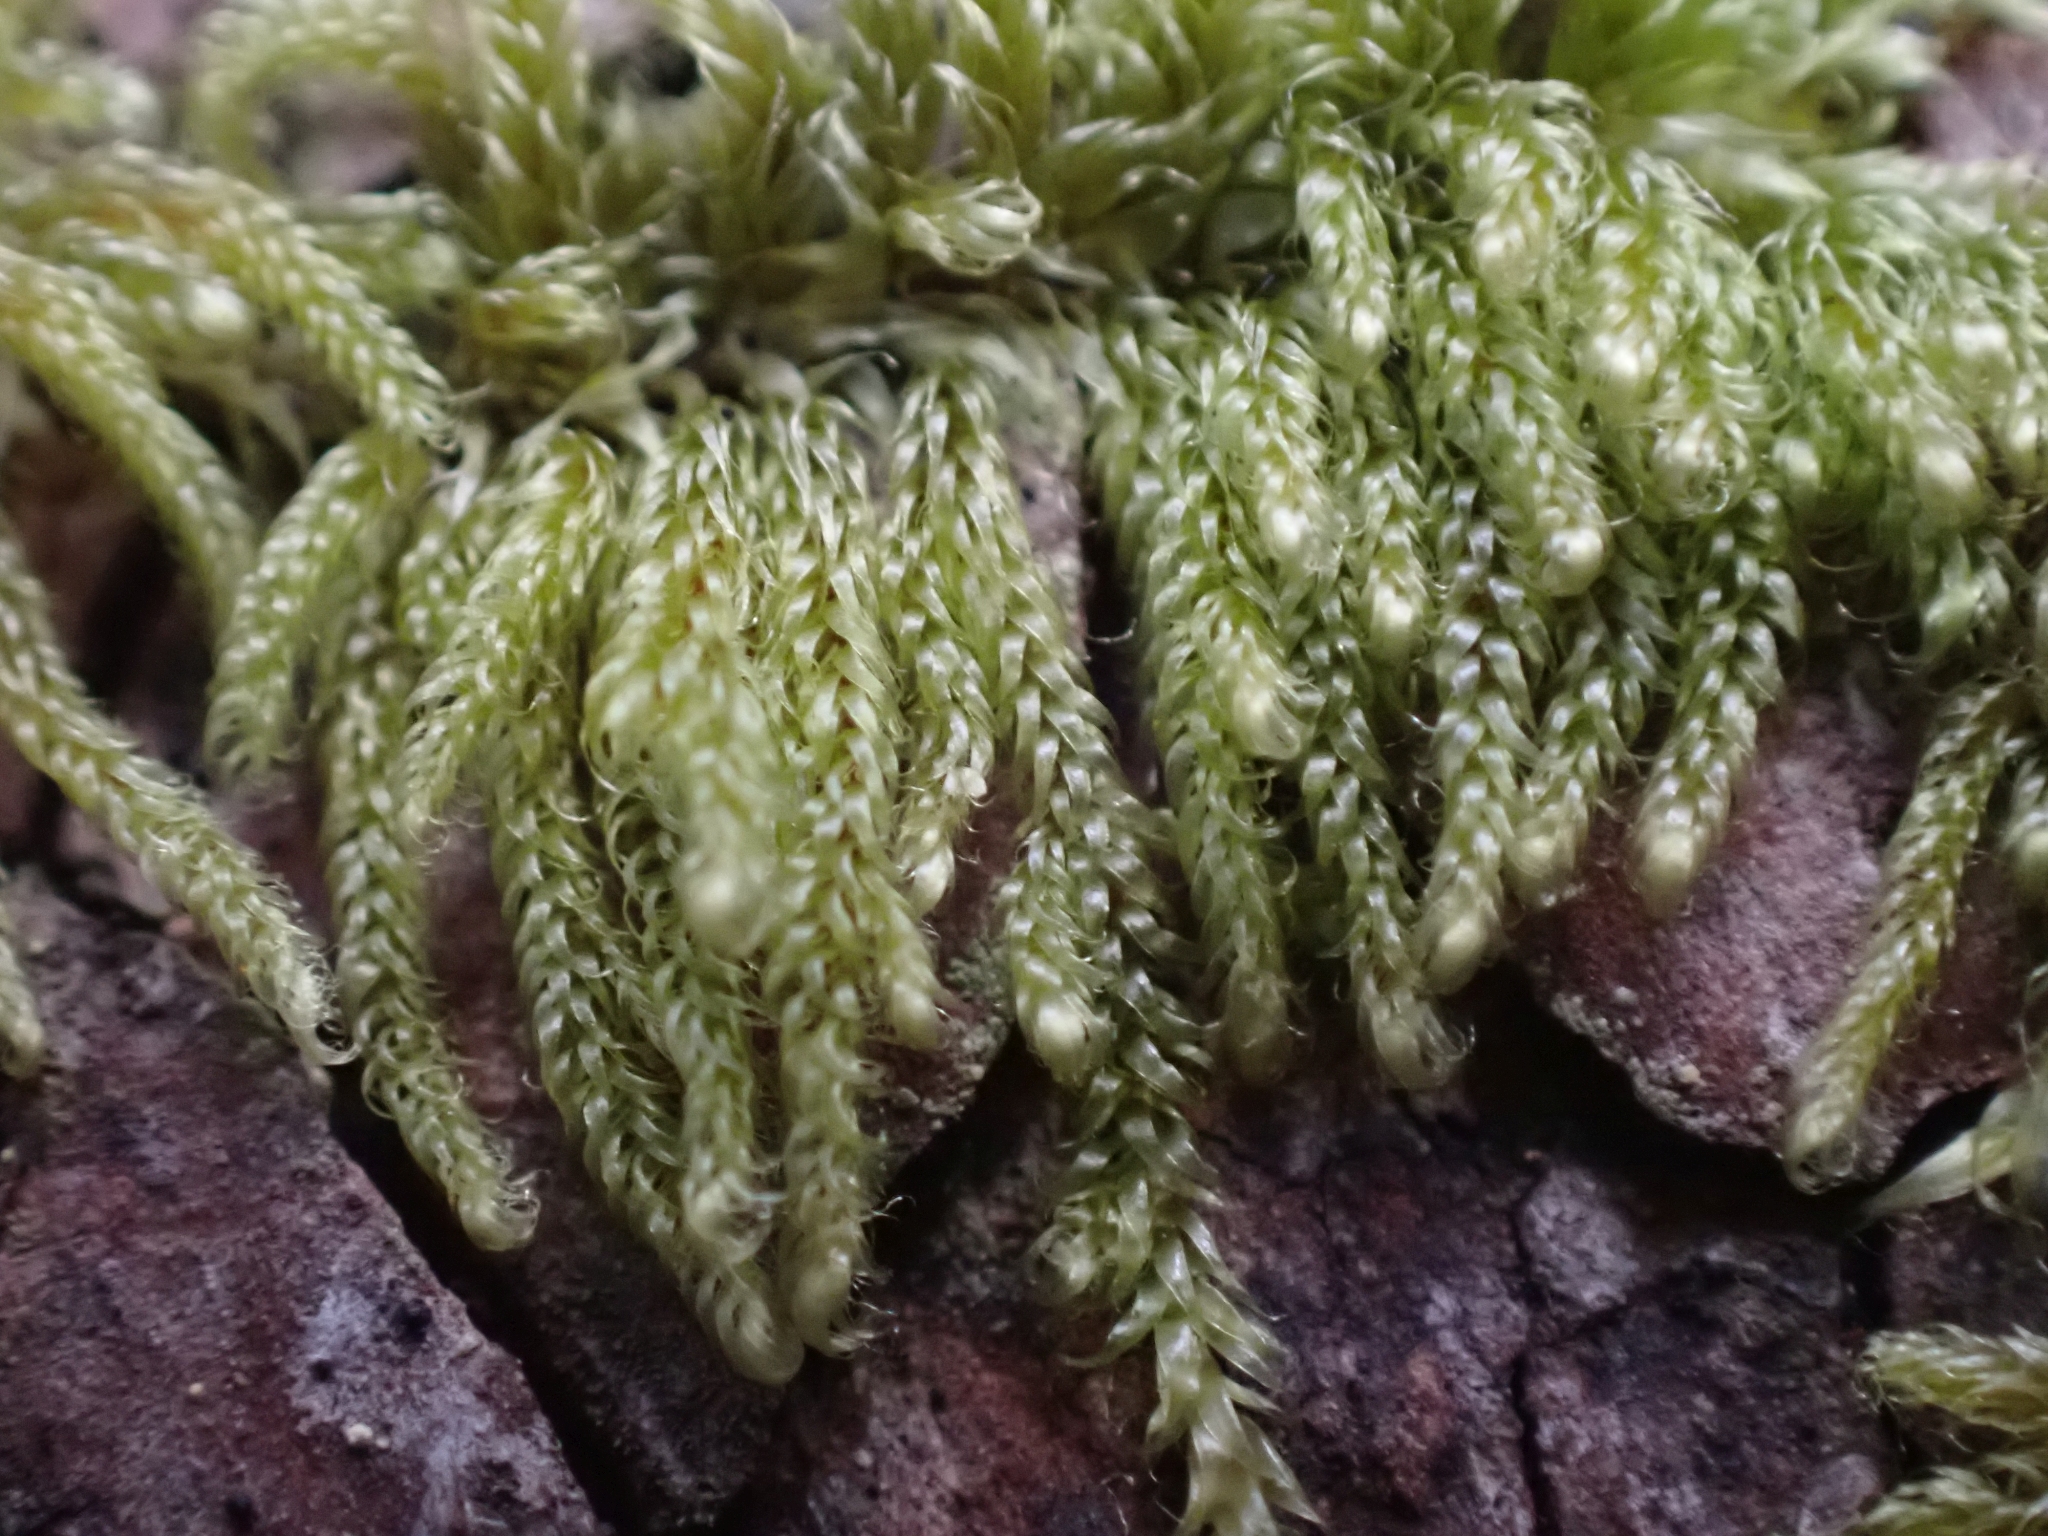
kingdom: Plantae
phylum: Bryophyta
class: Bryopsida
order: Hypnales
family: Pylaisiadelphaceae
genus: Trochophyllohypnum
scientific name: Trochophyllohypnum circinale
